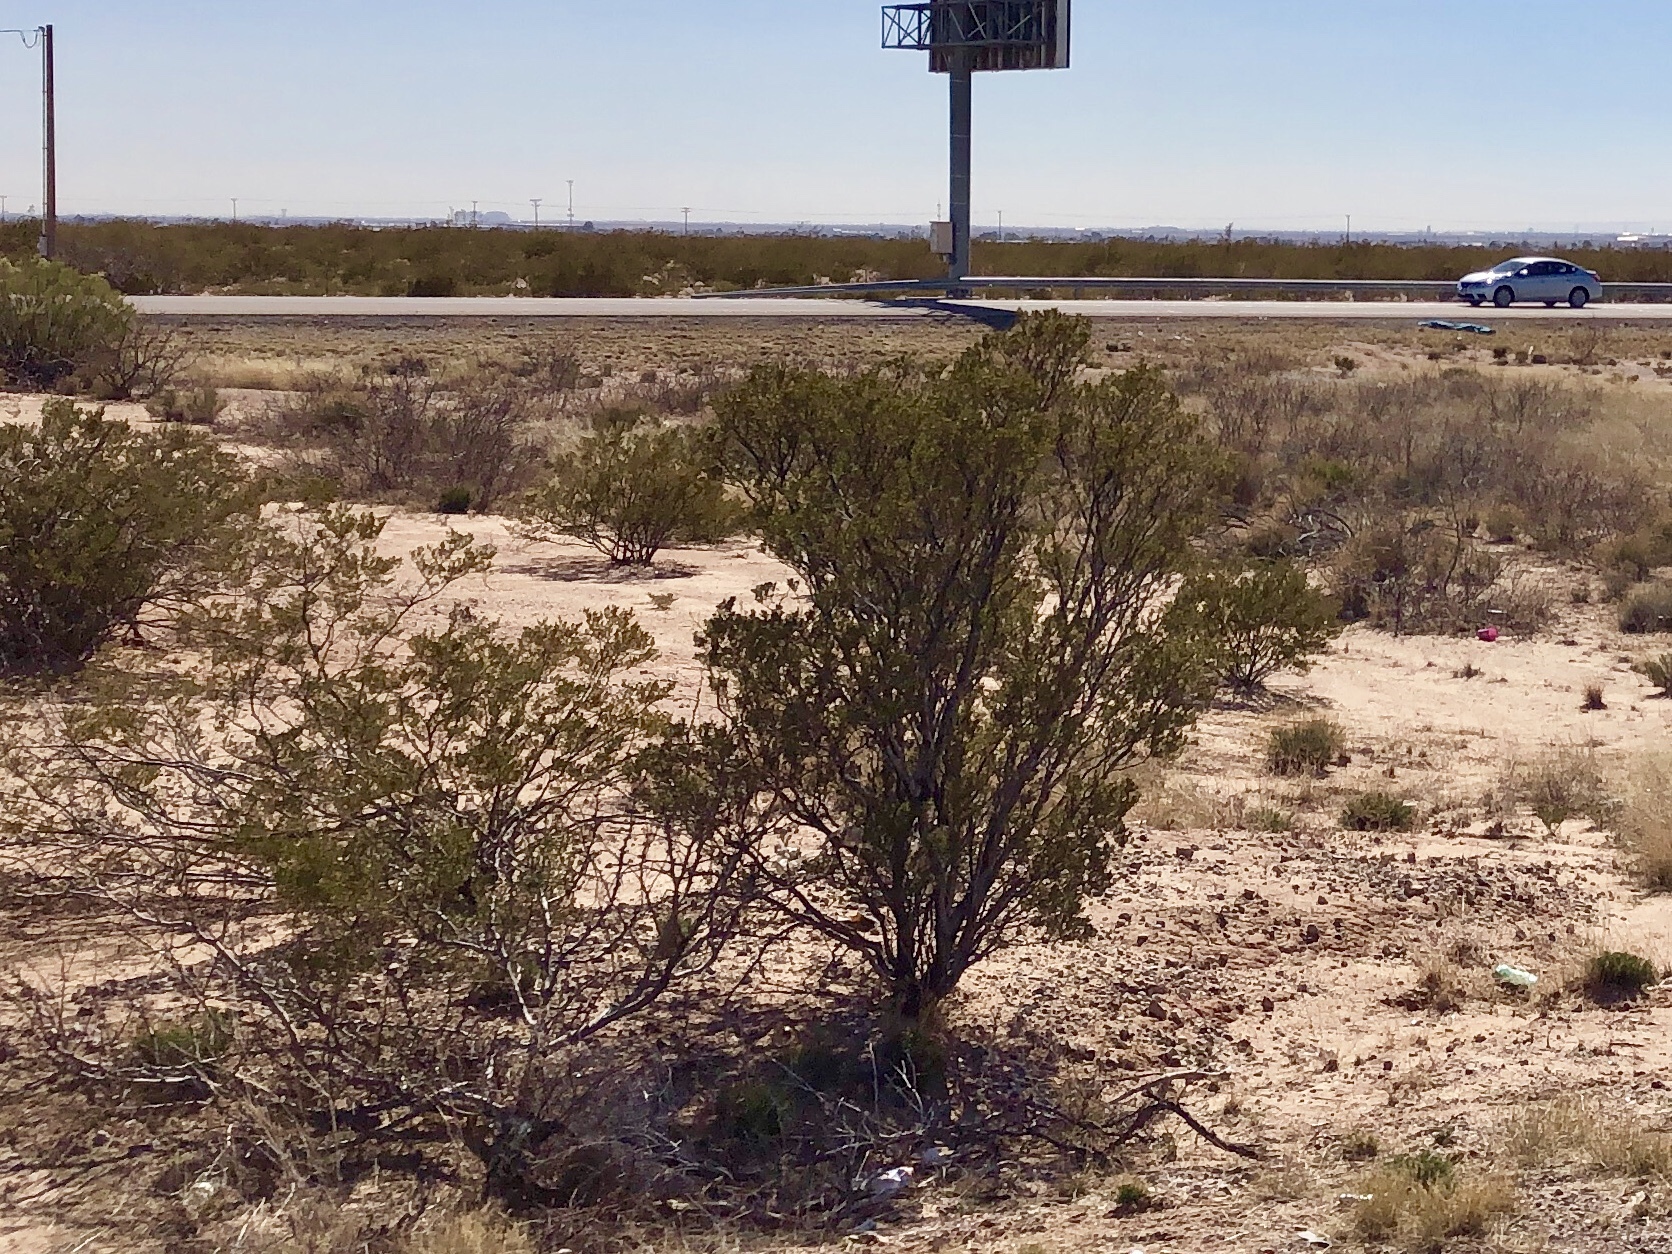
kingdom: Plantae
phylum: Tracheophyta
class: Magnoliopsida
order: Zygophyllales
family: Zygophyllaceae
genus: Larrea
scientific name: Larrea tridentata
